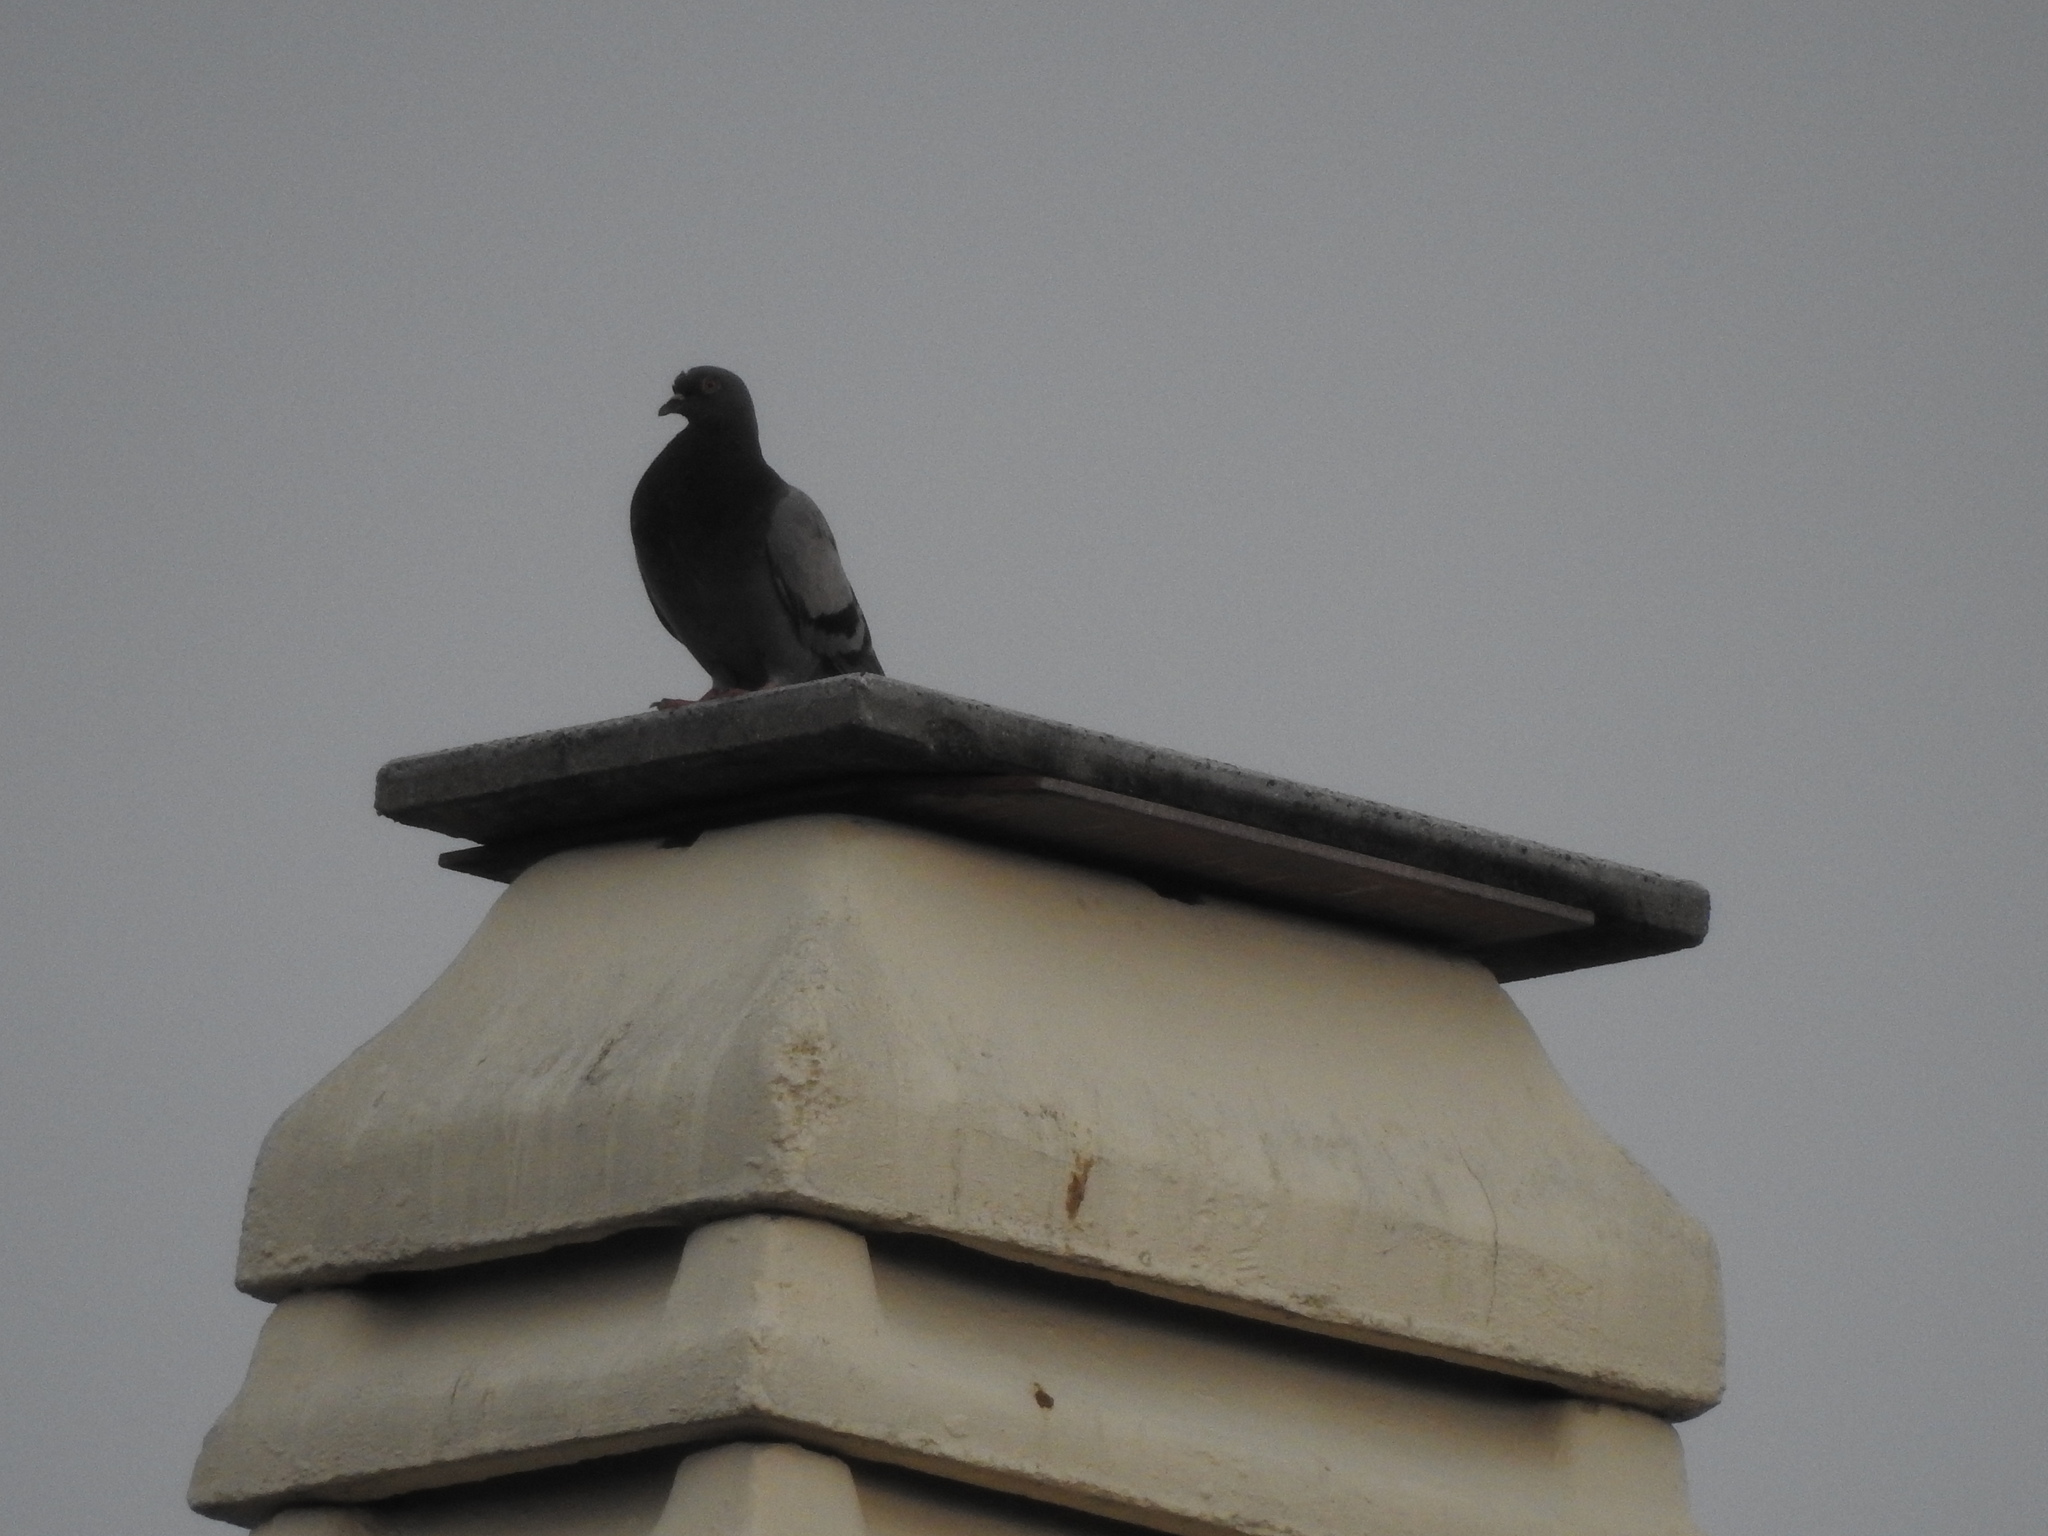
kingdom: Animalia
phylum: Chordata
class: Aves
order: Columbiformes
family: Columbidae
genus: Columba
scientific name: Columba livia
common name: Rock pigeon
